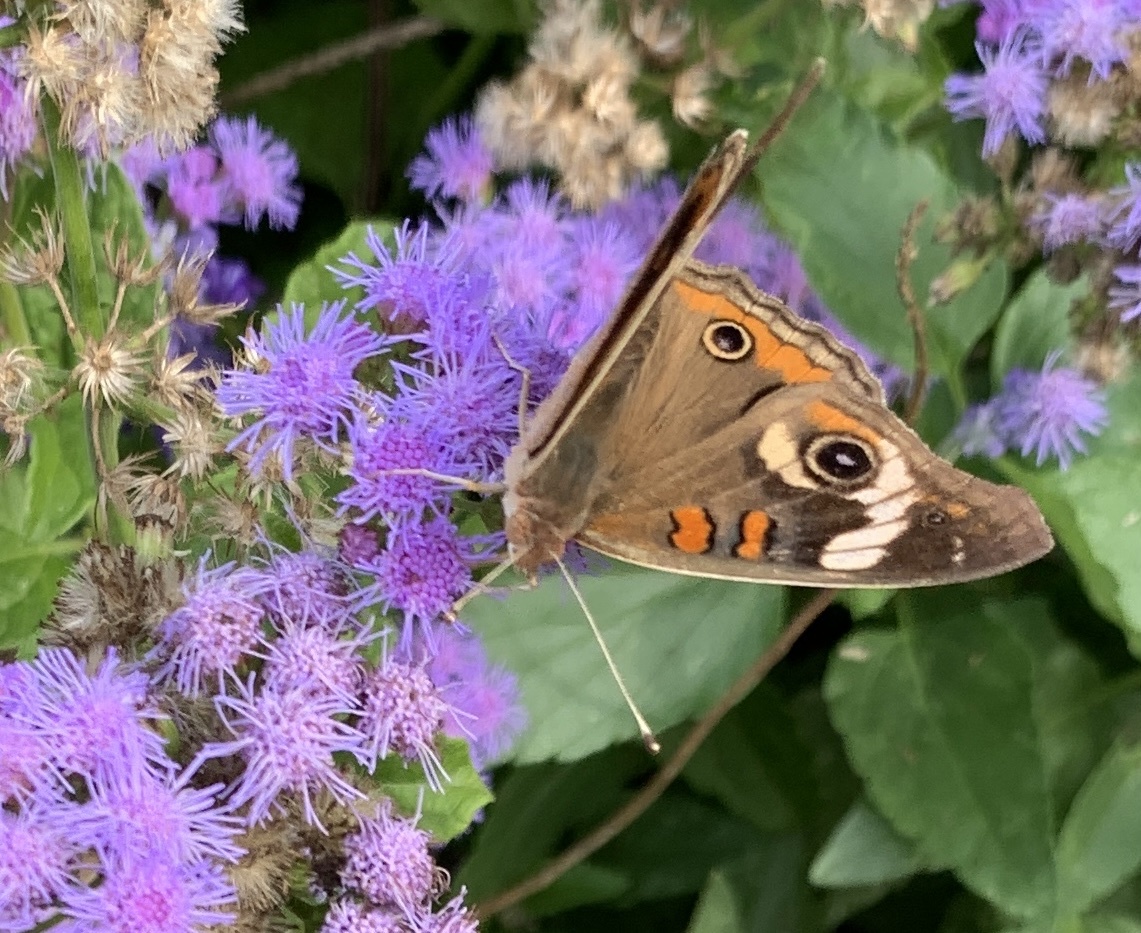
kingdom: Animalia
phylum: Arthropoda
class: Insecta
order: Lepidoptera
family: Nymphalidae
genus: Junonia
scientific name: Junonia coenia
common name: Common buckeye
